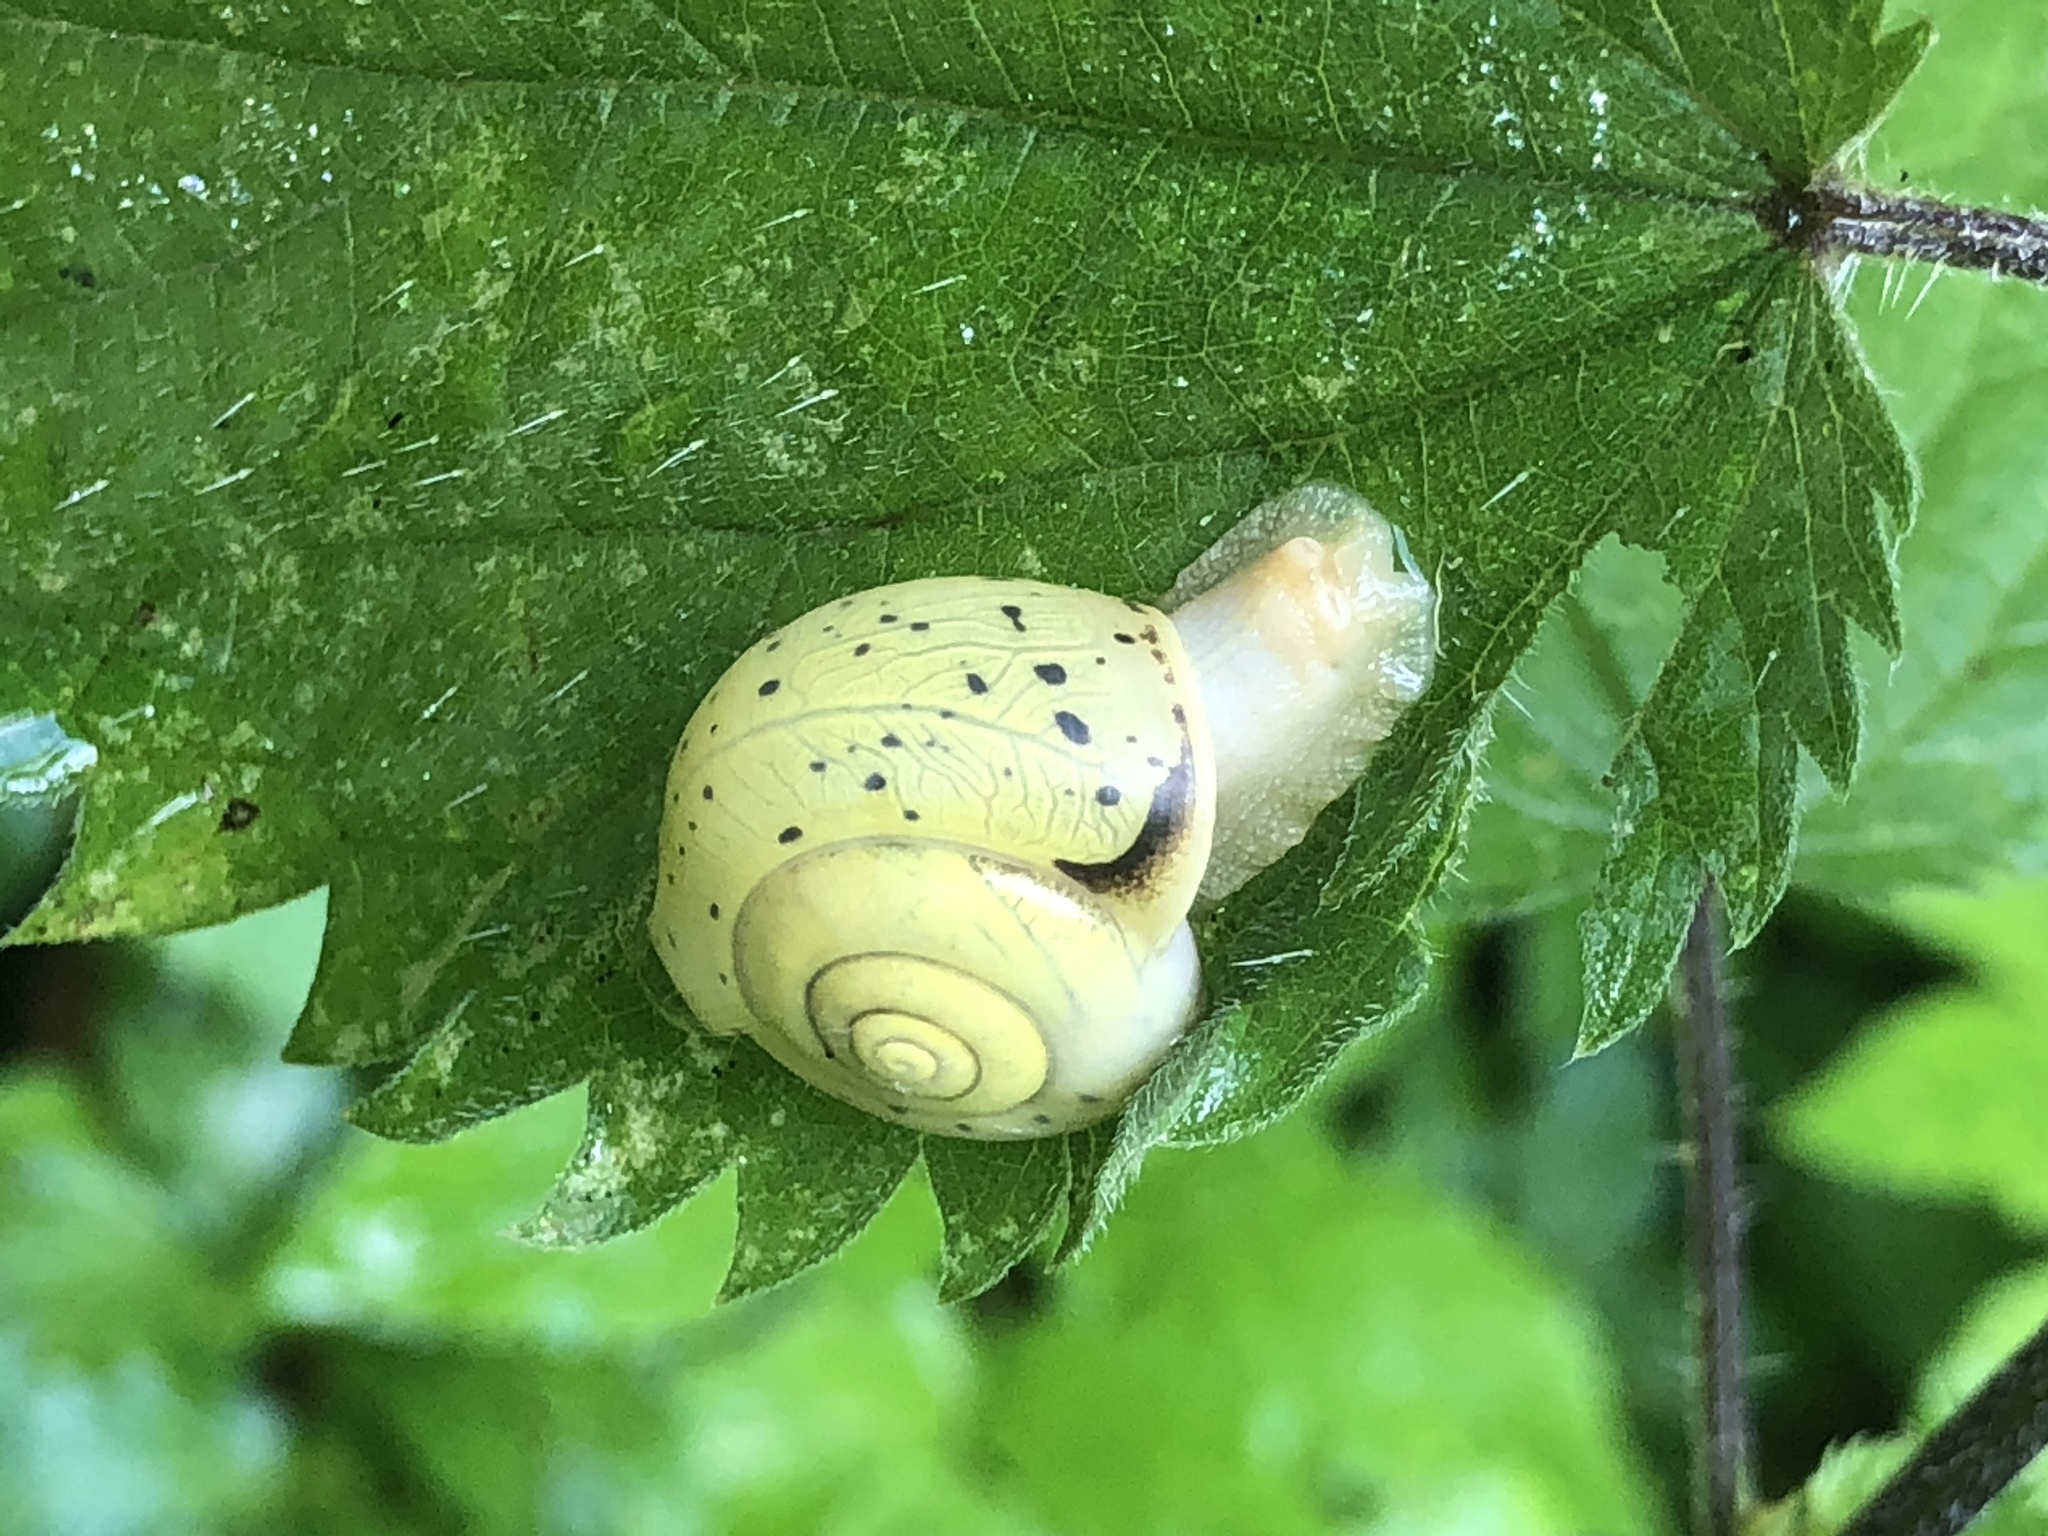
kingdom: Animalia
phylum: Mollusca
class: Gastropoda
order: Stylommatophora
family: Camaenidae
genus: Fruticicola
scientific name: Fruticicola fruticum
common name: Bush snail
